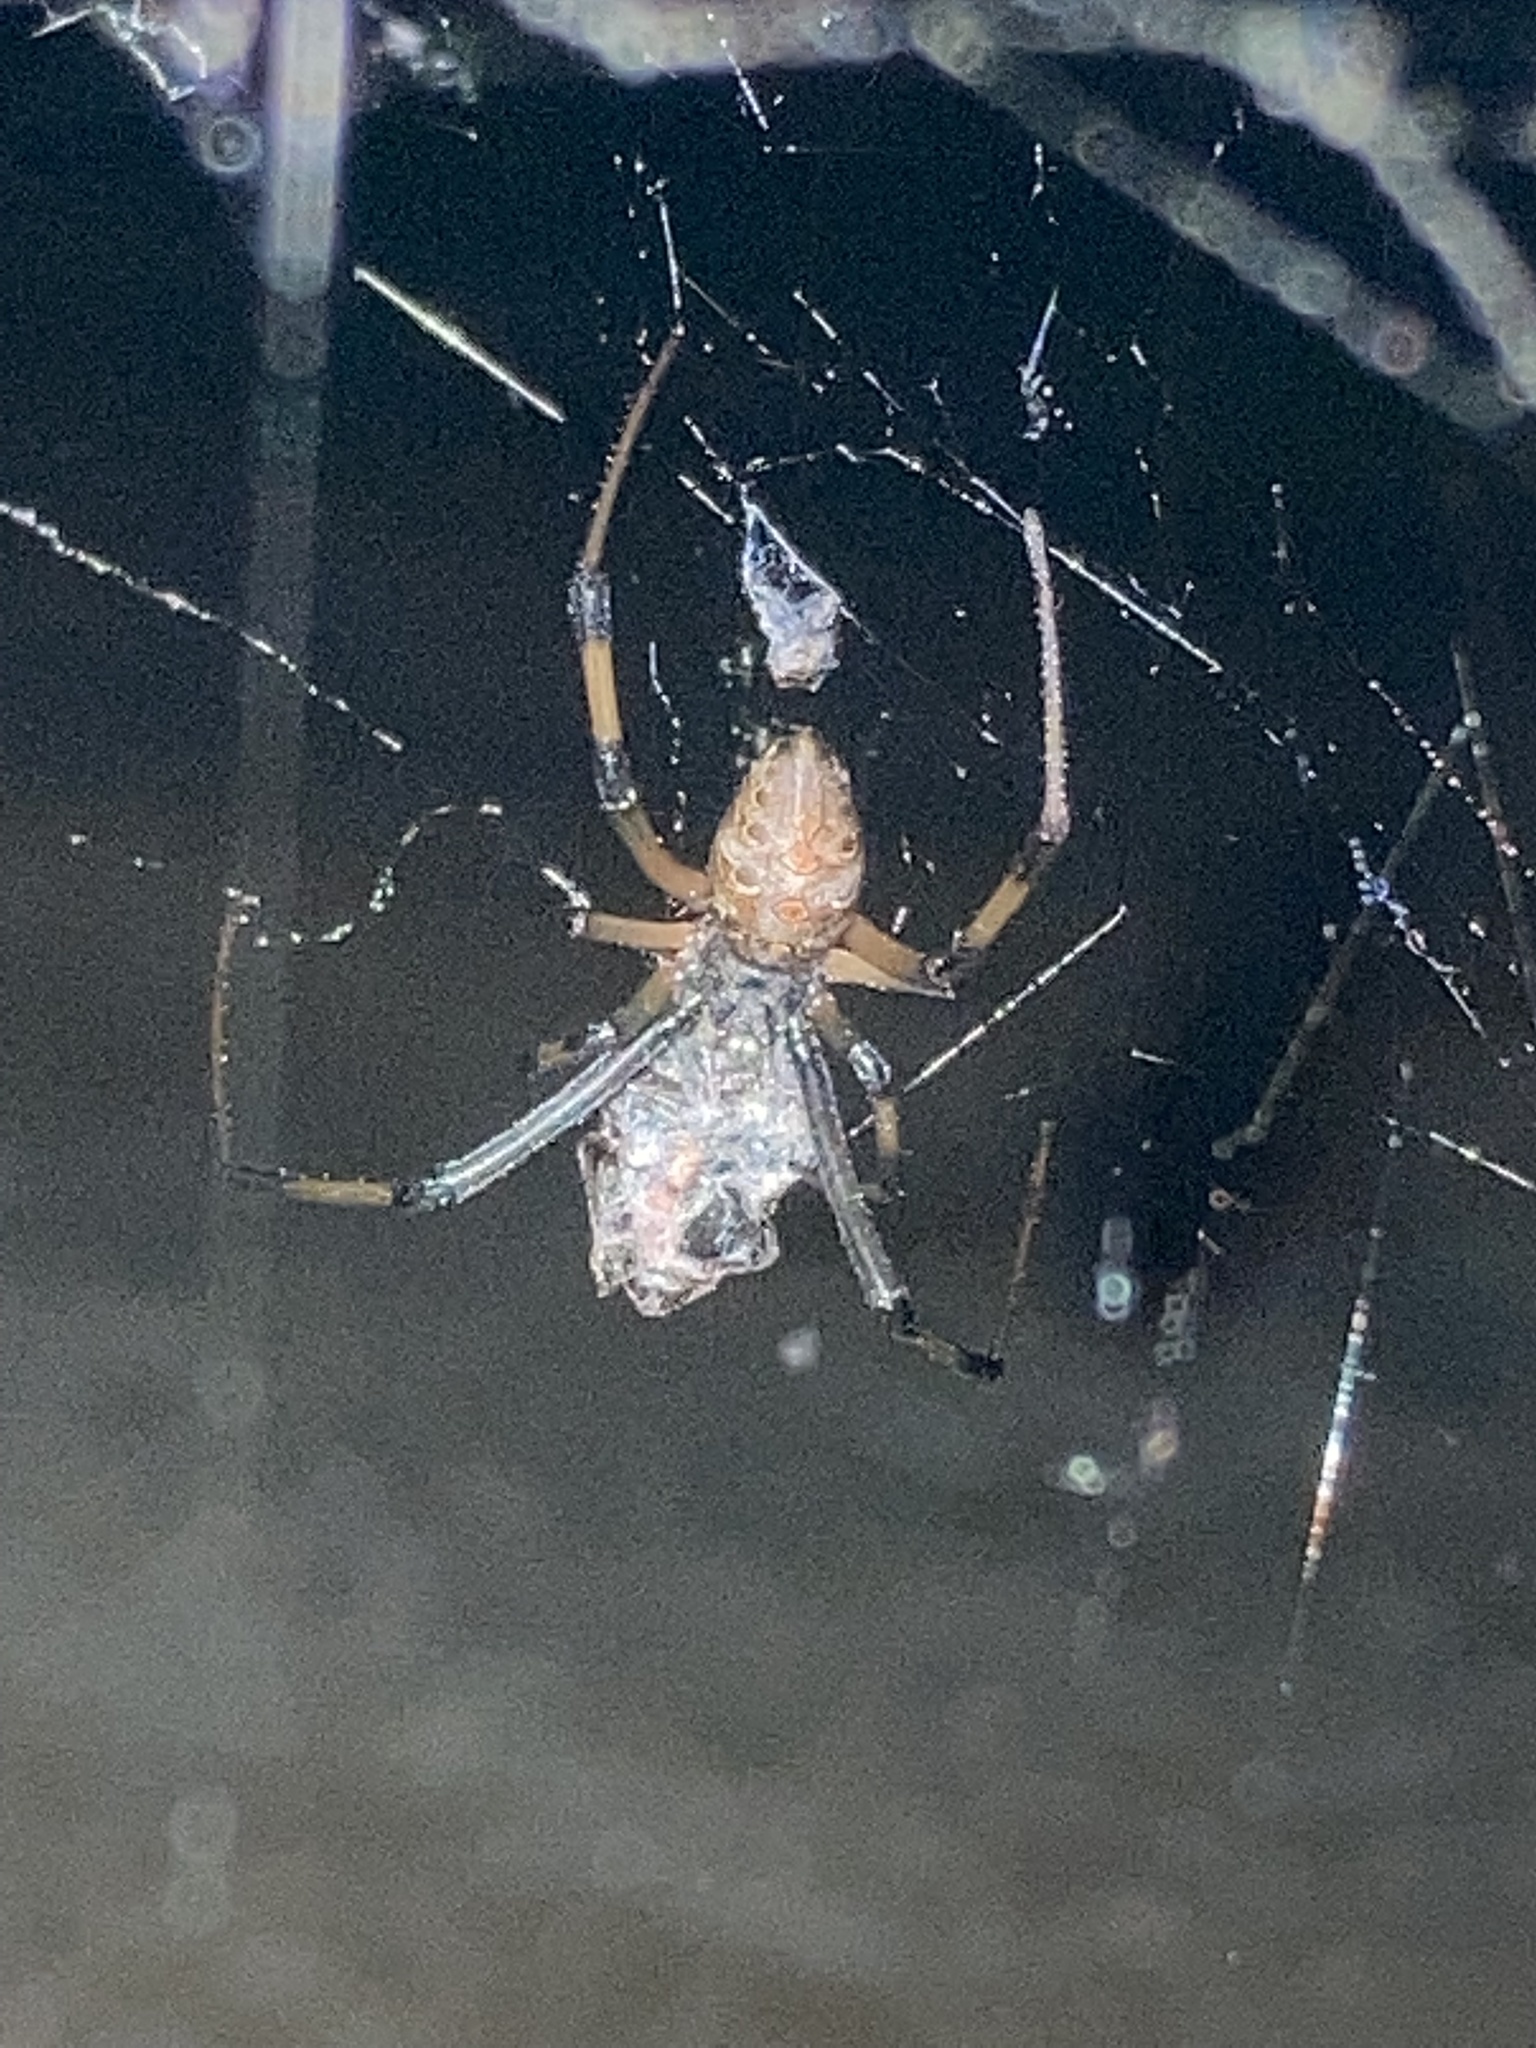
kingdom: Animalia
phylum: Arthropoda
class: Arachnida
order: Araneae
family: Theridiidae
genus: Latrodectus
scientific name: Latrodectus geometricus
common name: Brown widow spider
